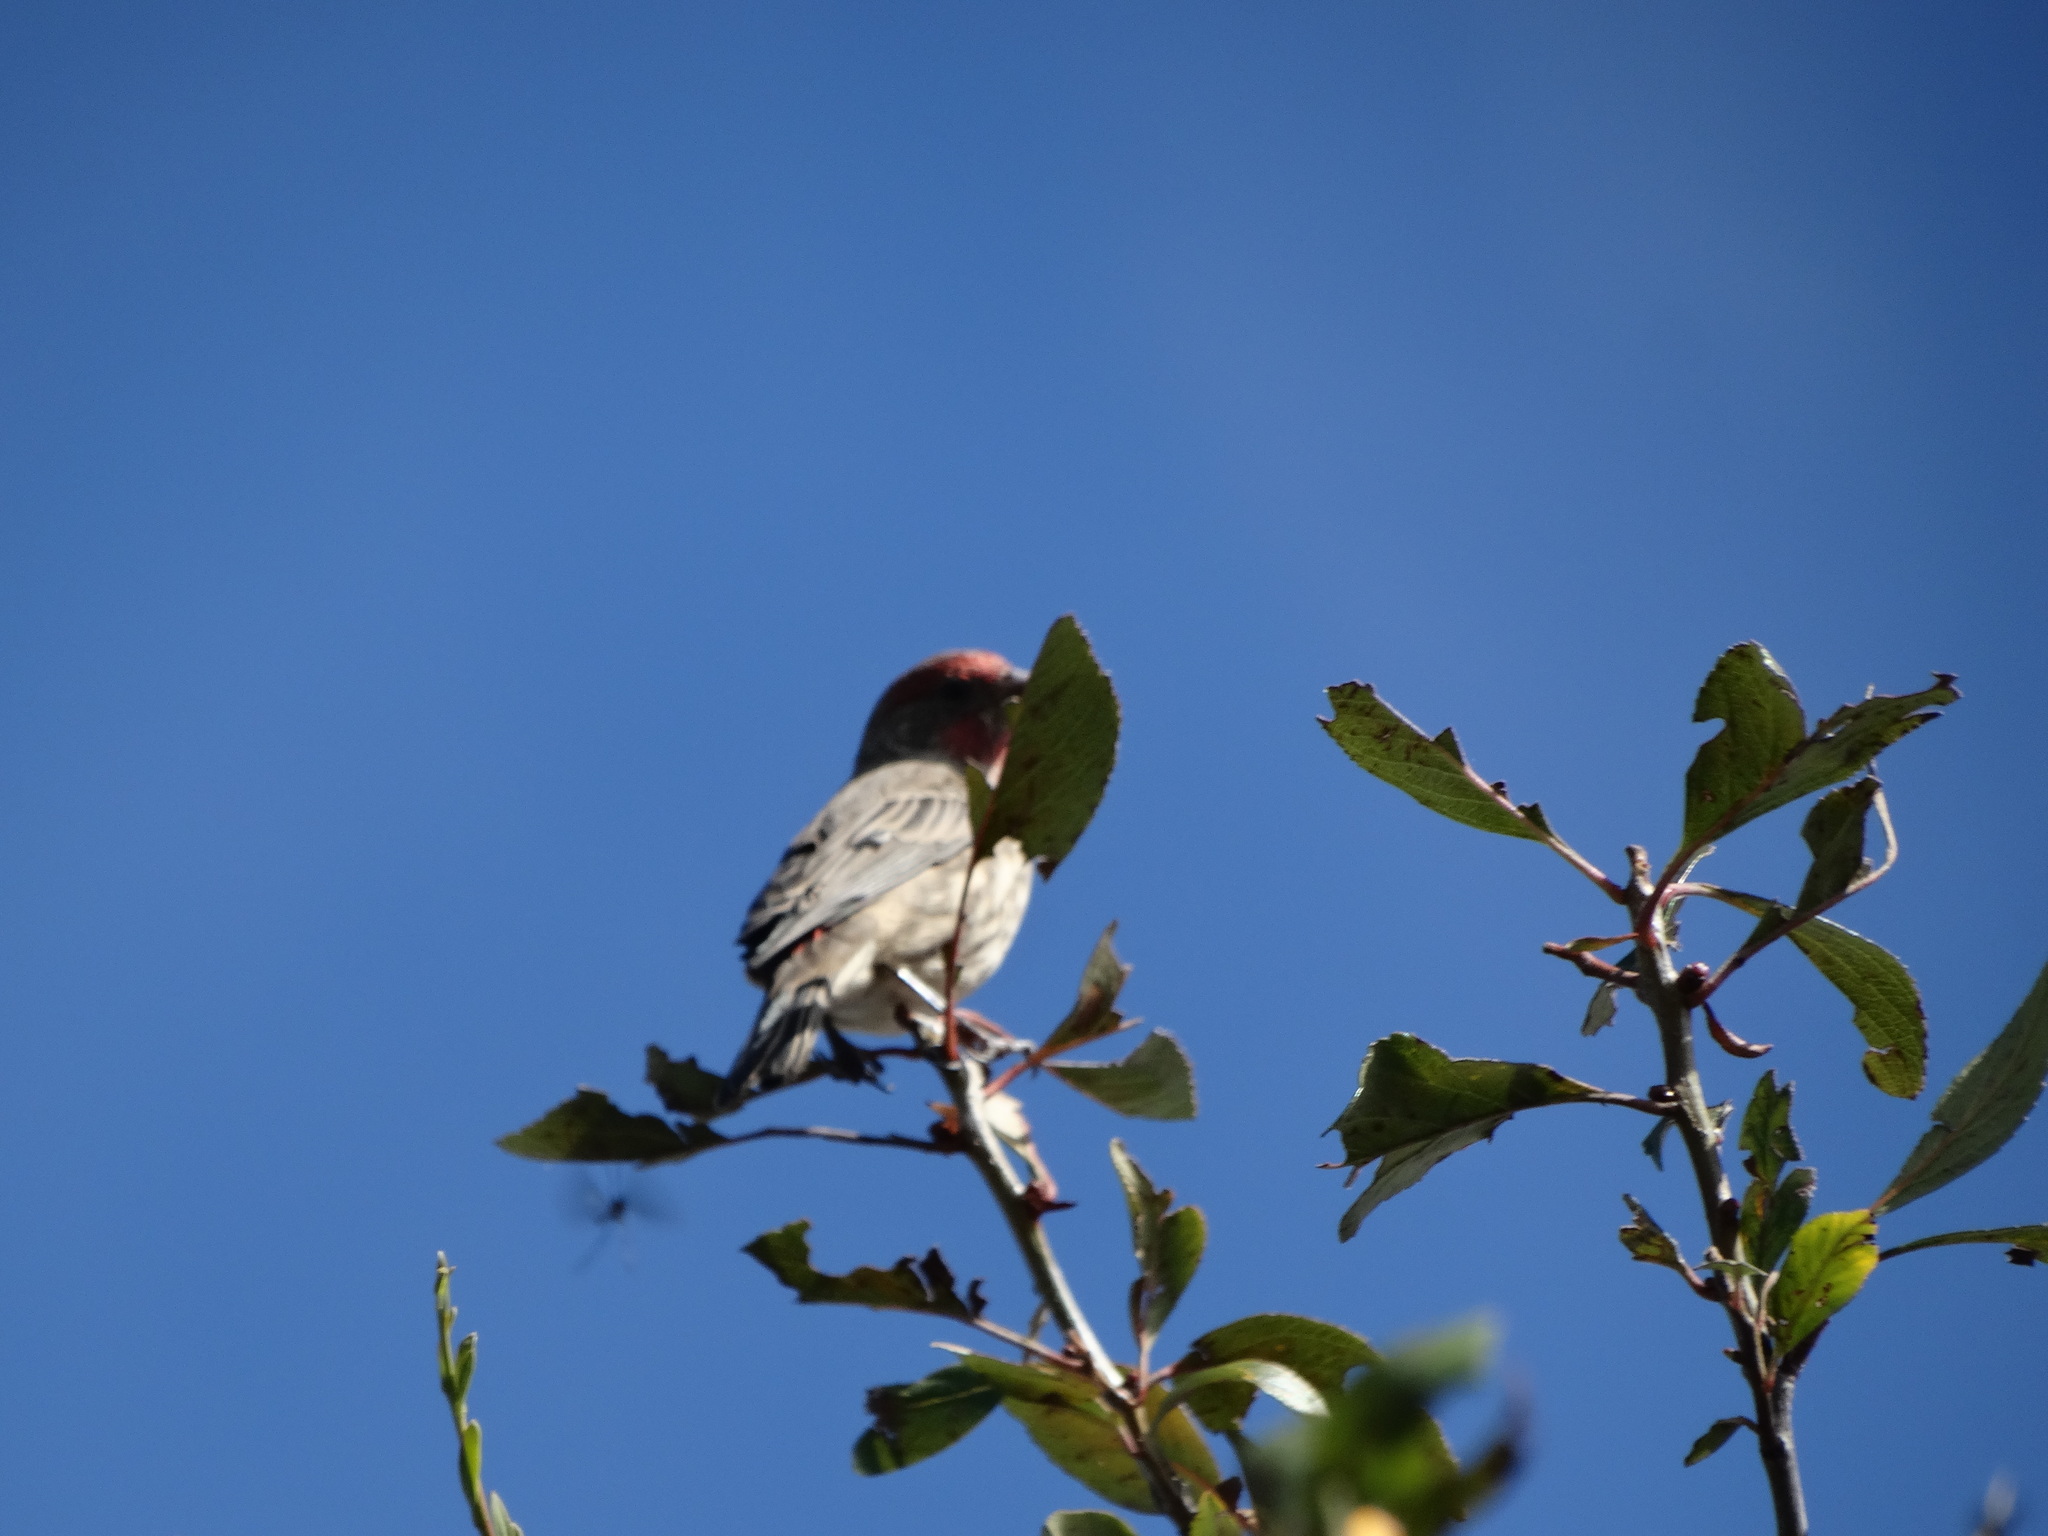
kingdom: Animalia
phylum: Chordata
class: Aves
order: Passeriformes
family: Fringillidae
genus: Haemorhous
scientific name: Haemorhous mexicanus
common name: House finch
